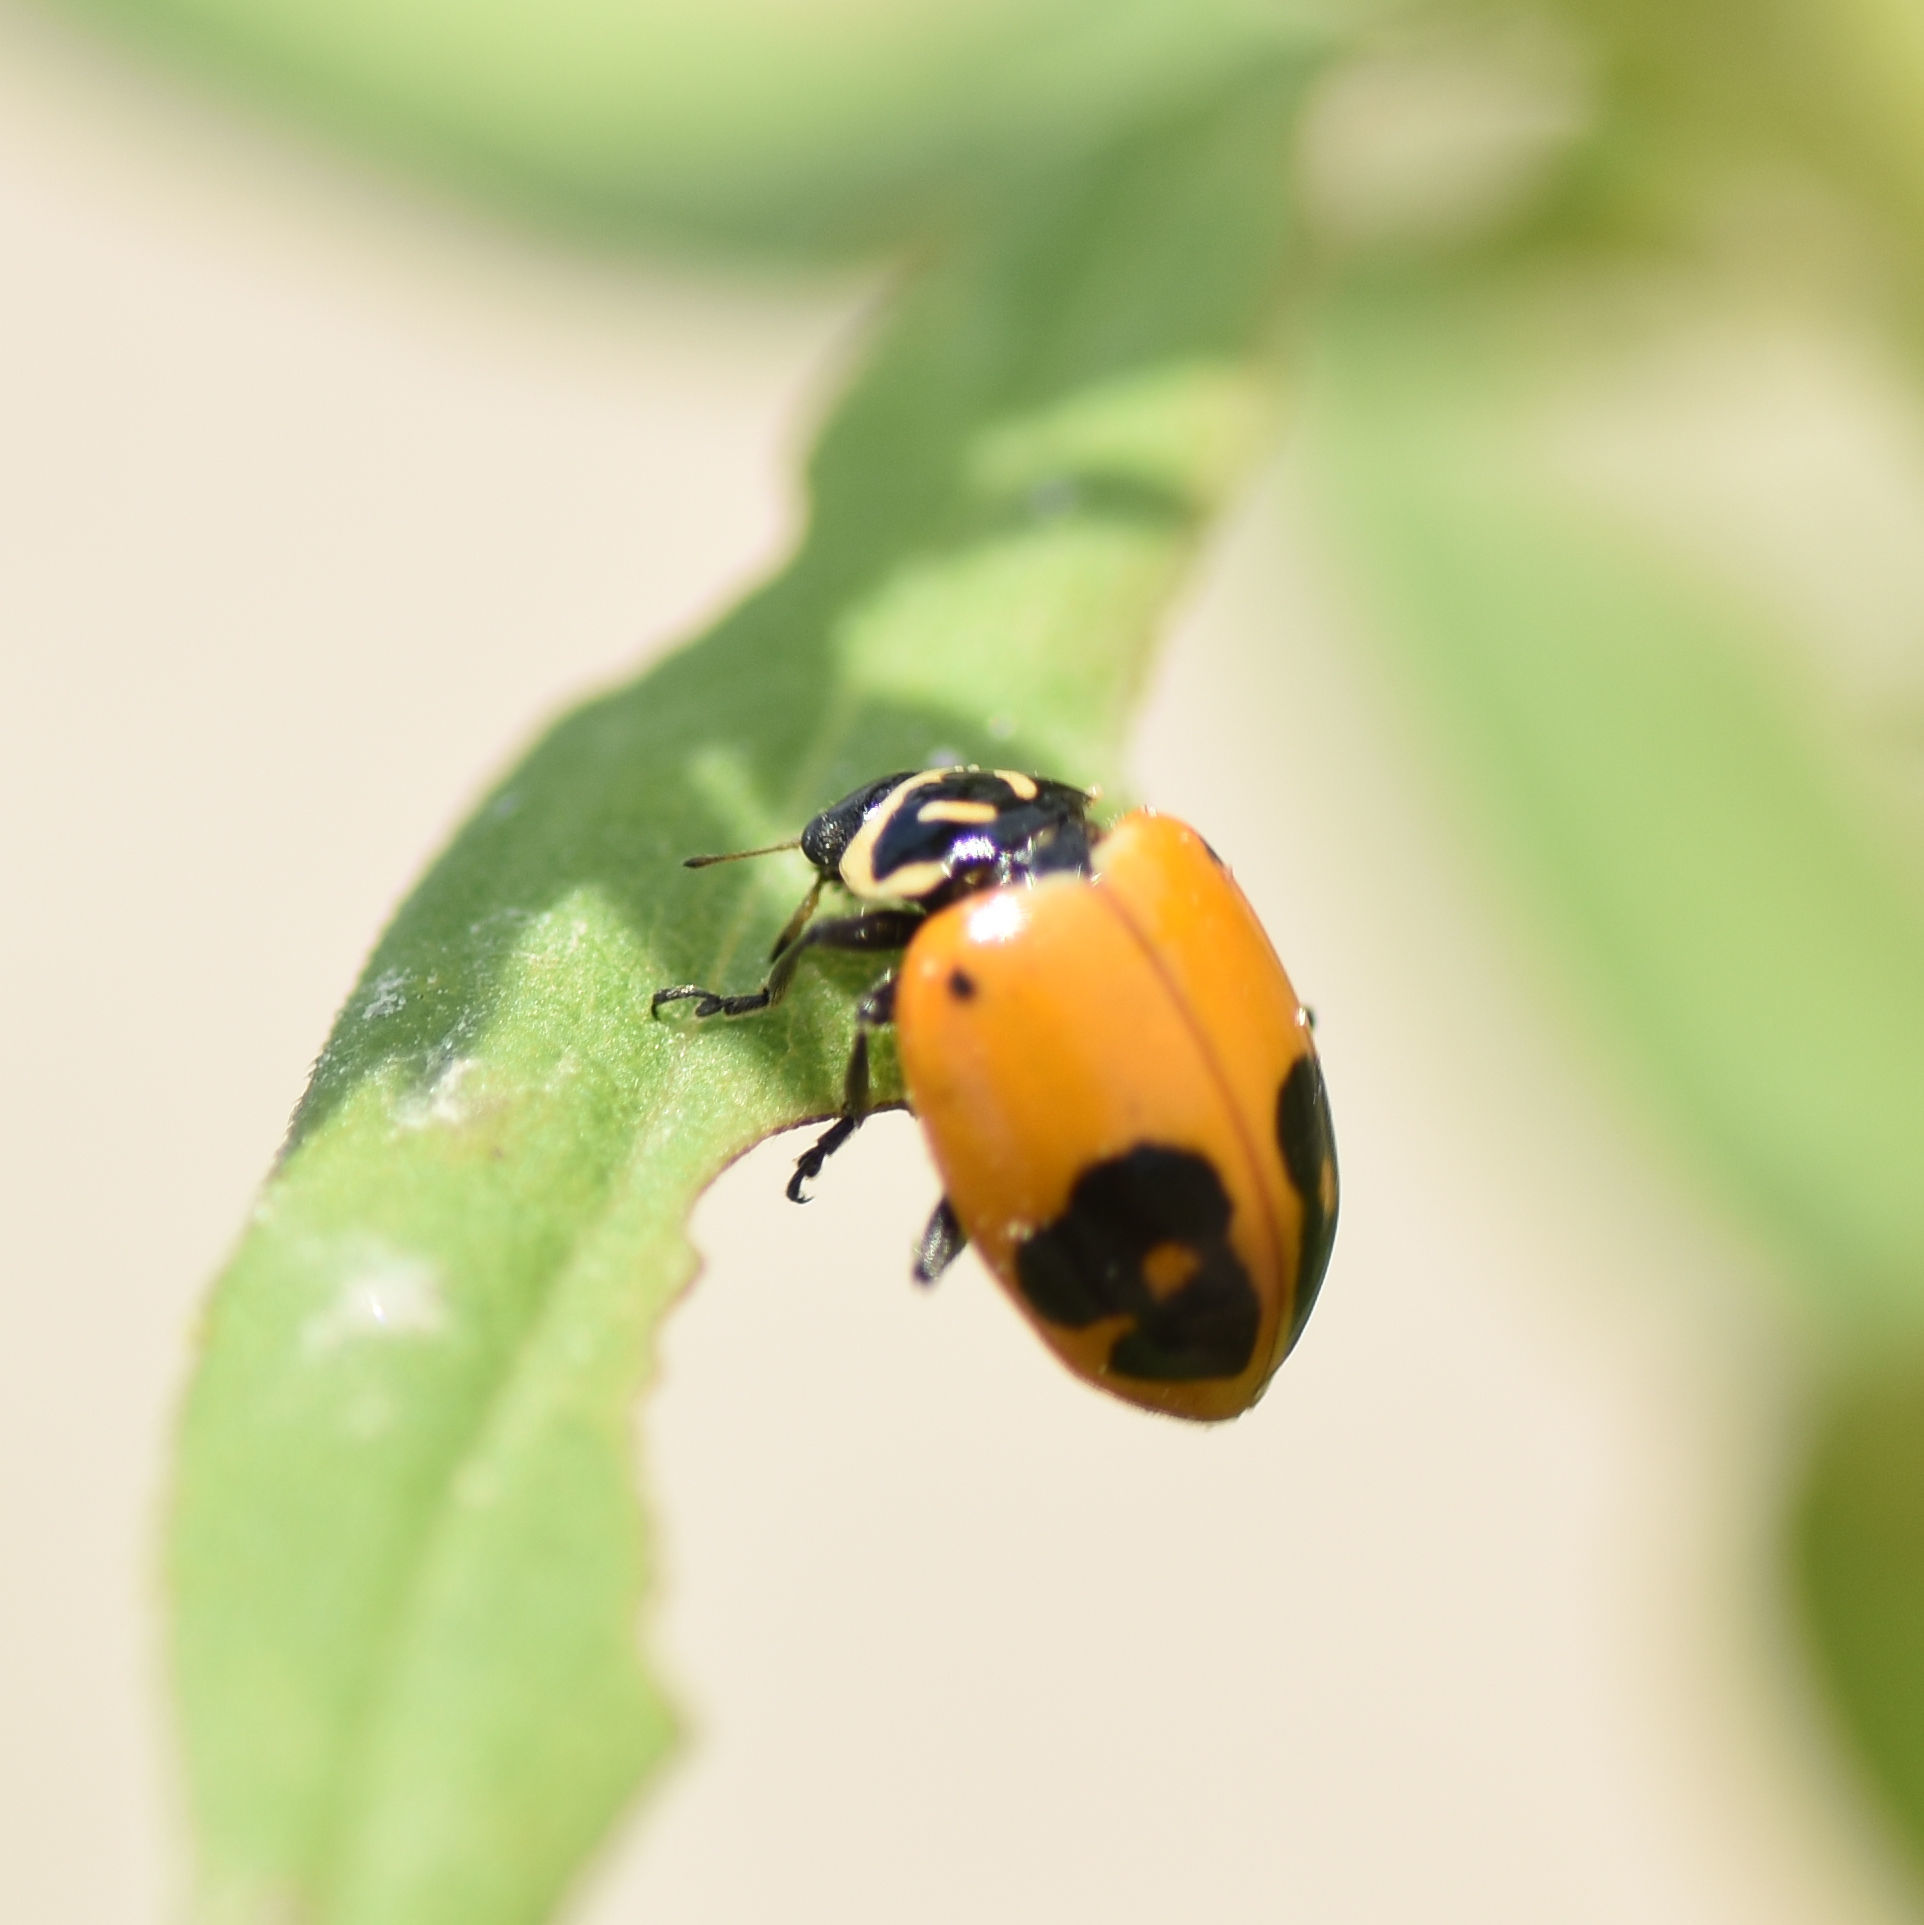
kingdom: Animalia
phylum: Arthropoda
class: Insecta
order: Coleoptera
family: Coccinellidae
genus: Hippodamia
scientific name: Hippodamia glacialis
